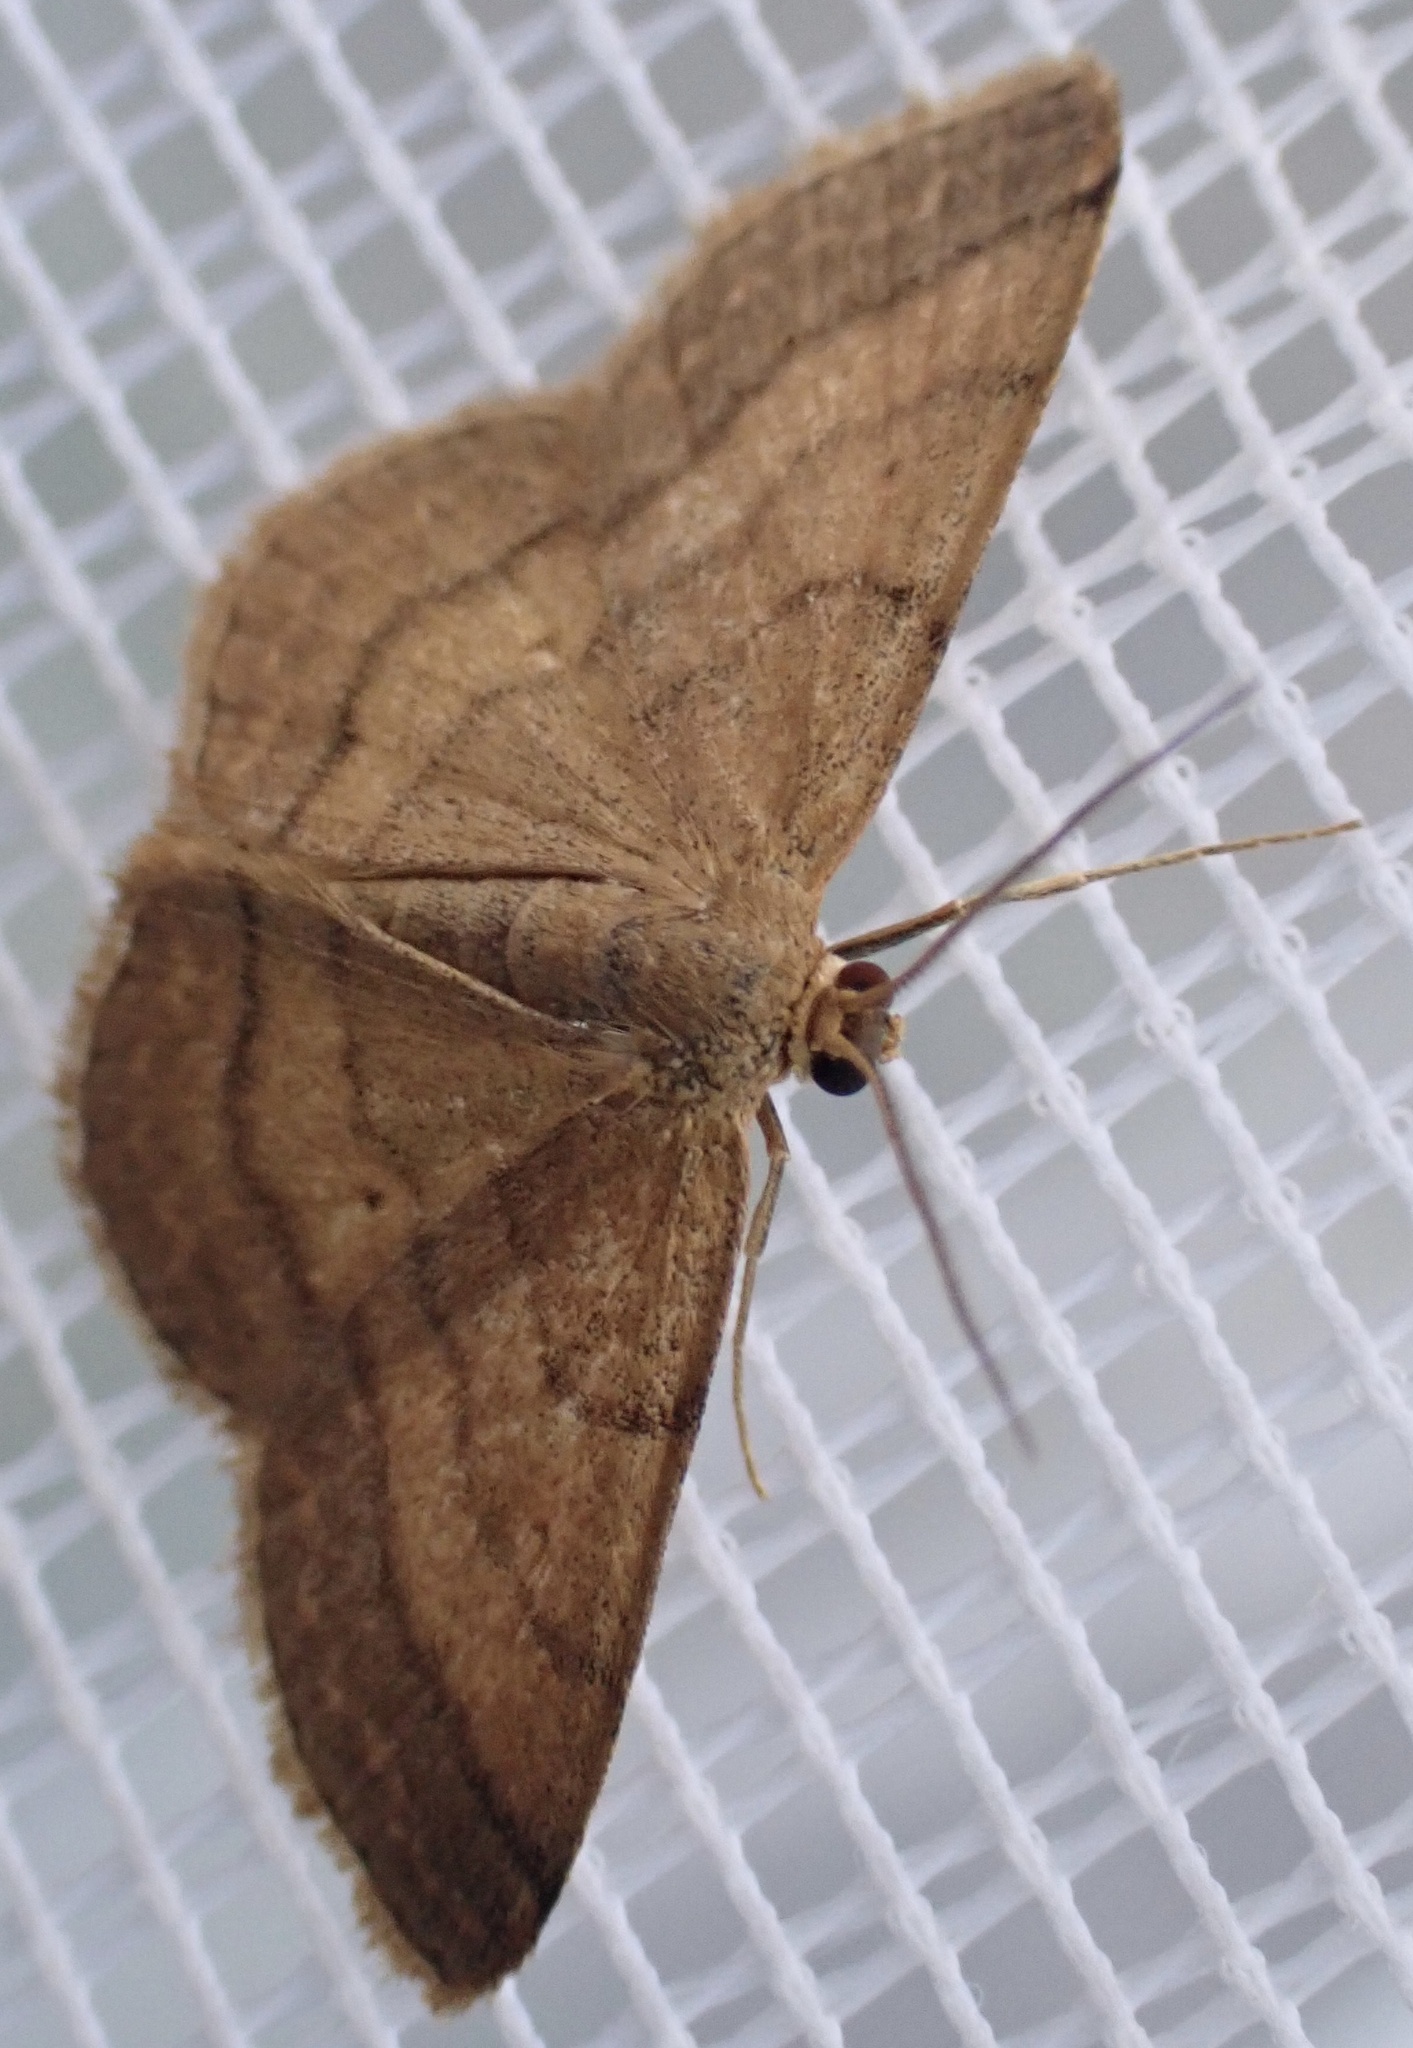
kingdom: Animalia
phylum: Arthropoda
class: Insecta
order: Lepidoptera
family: Geometridae
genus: Scopula
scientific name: Scopula rubiginata
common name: Tawny wave
